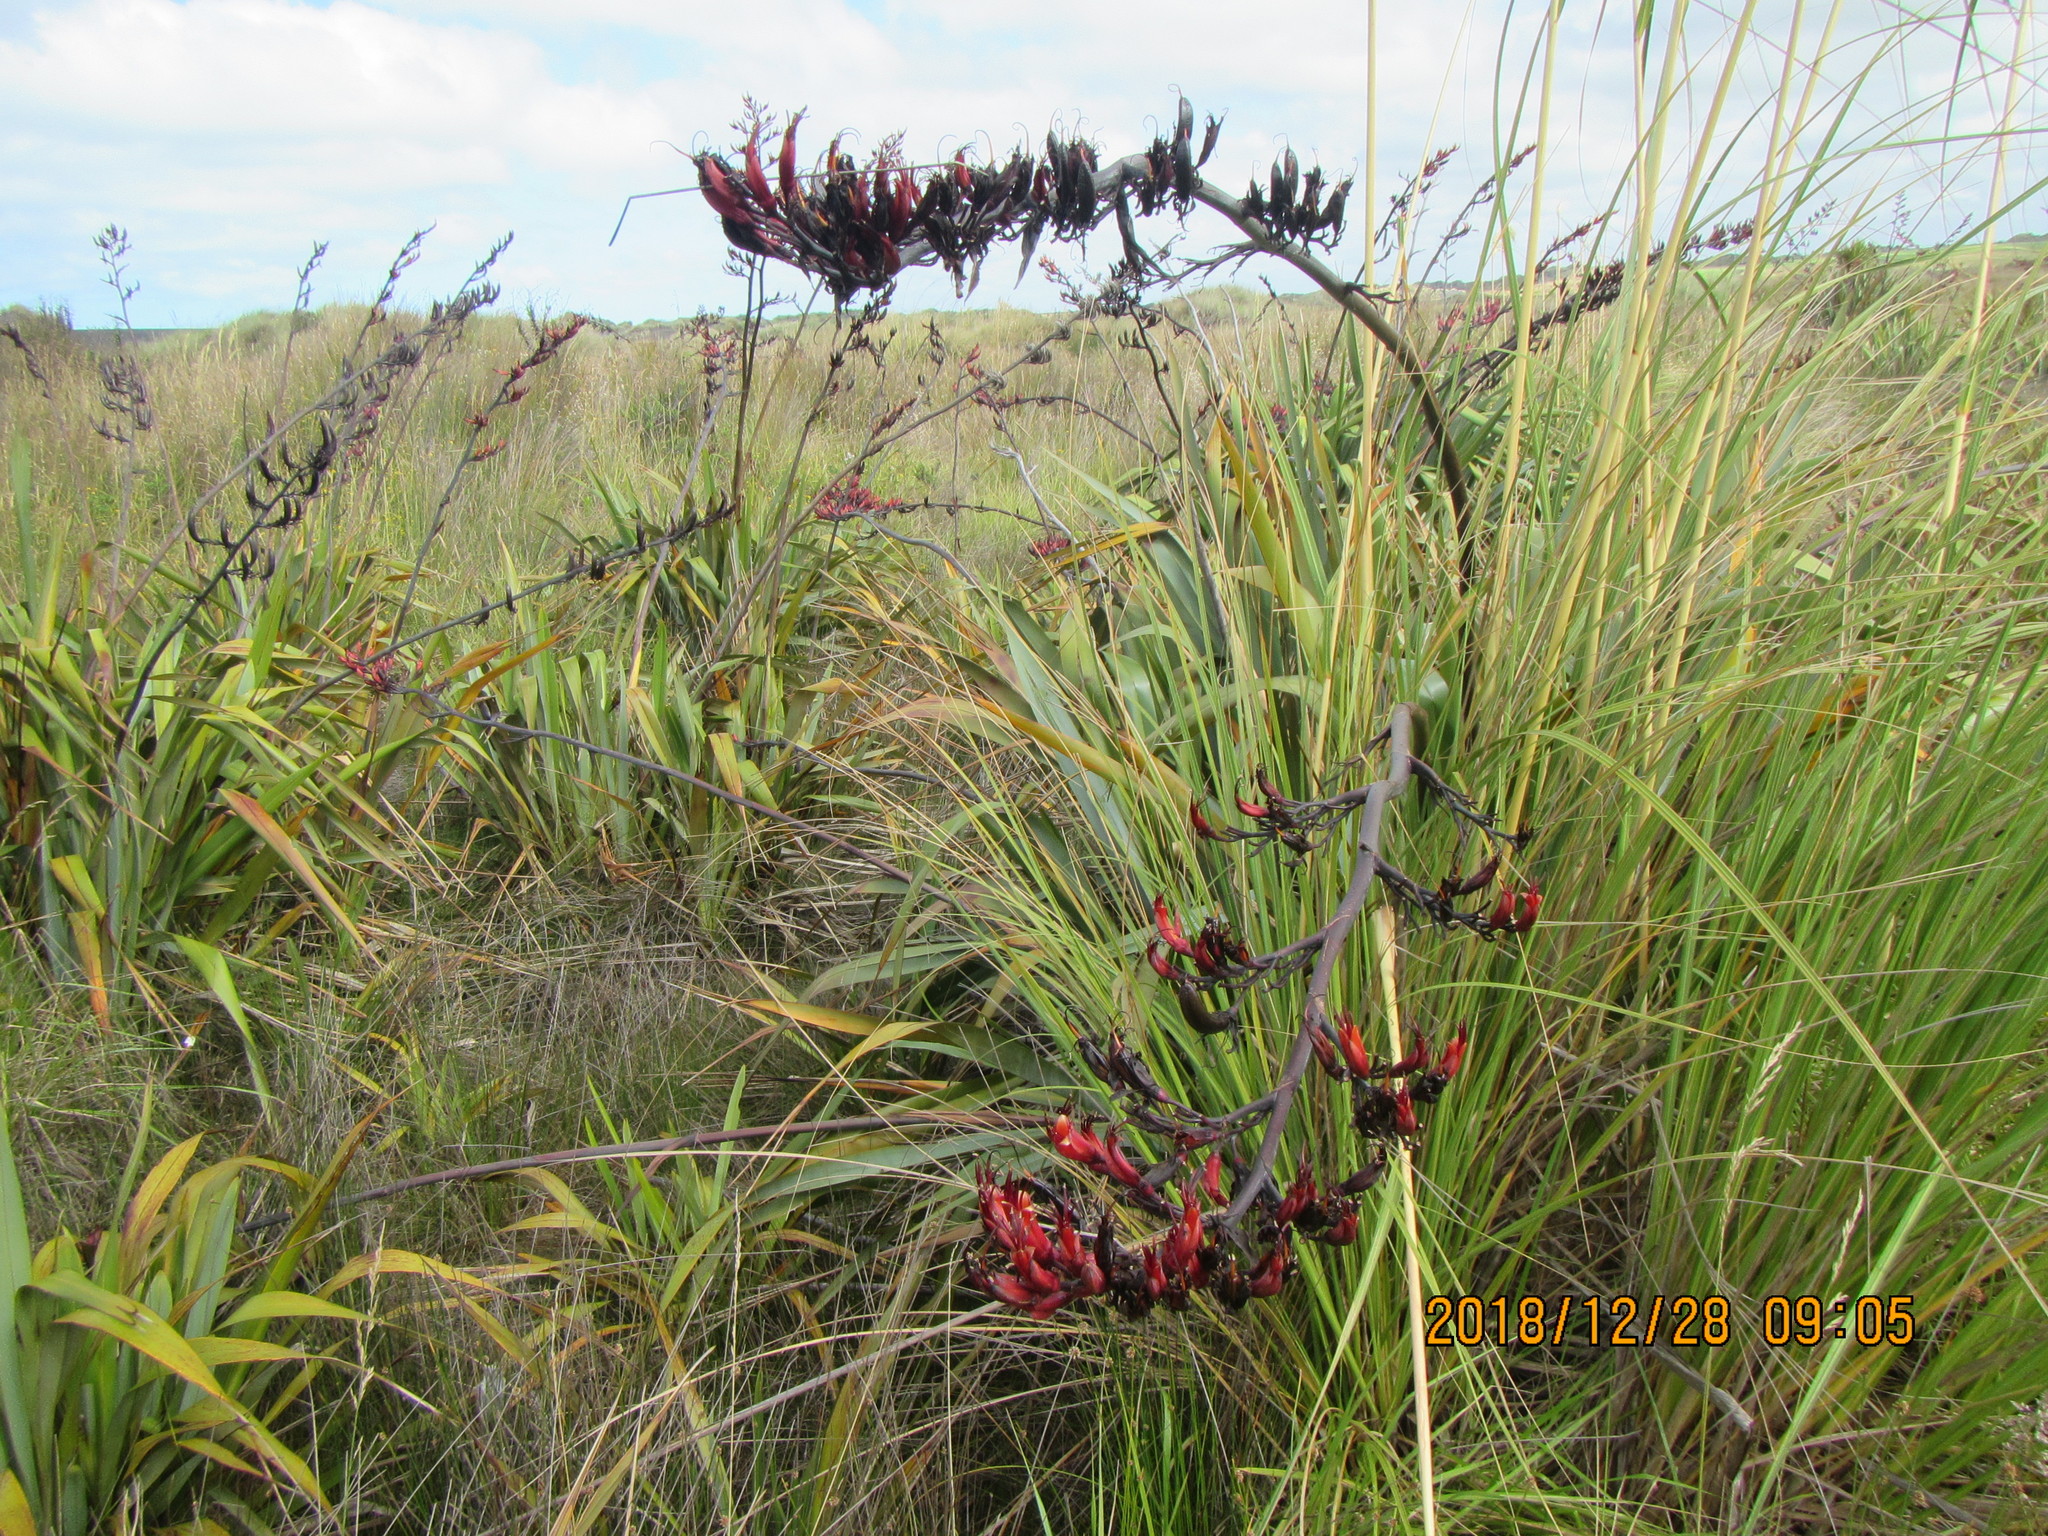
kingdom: Plantae
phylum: Tracheophyta
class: Liliopsida
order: Asparagales
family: Asphodelaceae
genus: Phormium
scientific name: Phormium tenax
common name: New zealand flax
